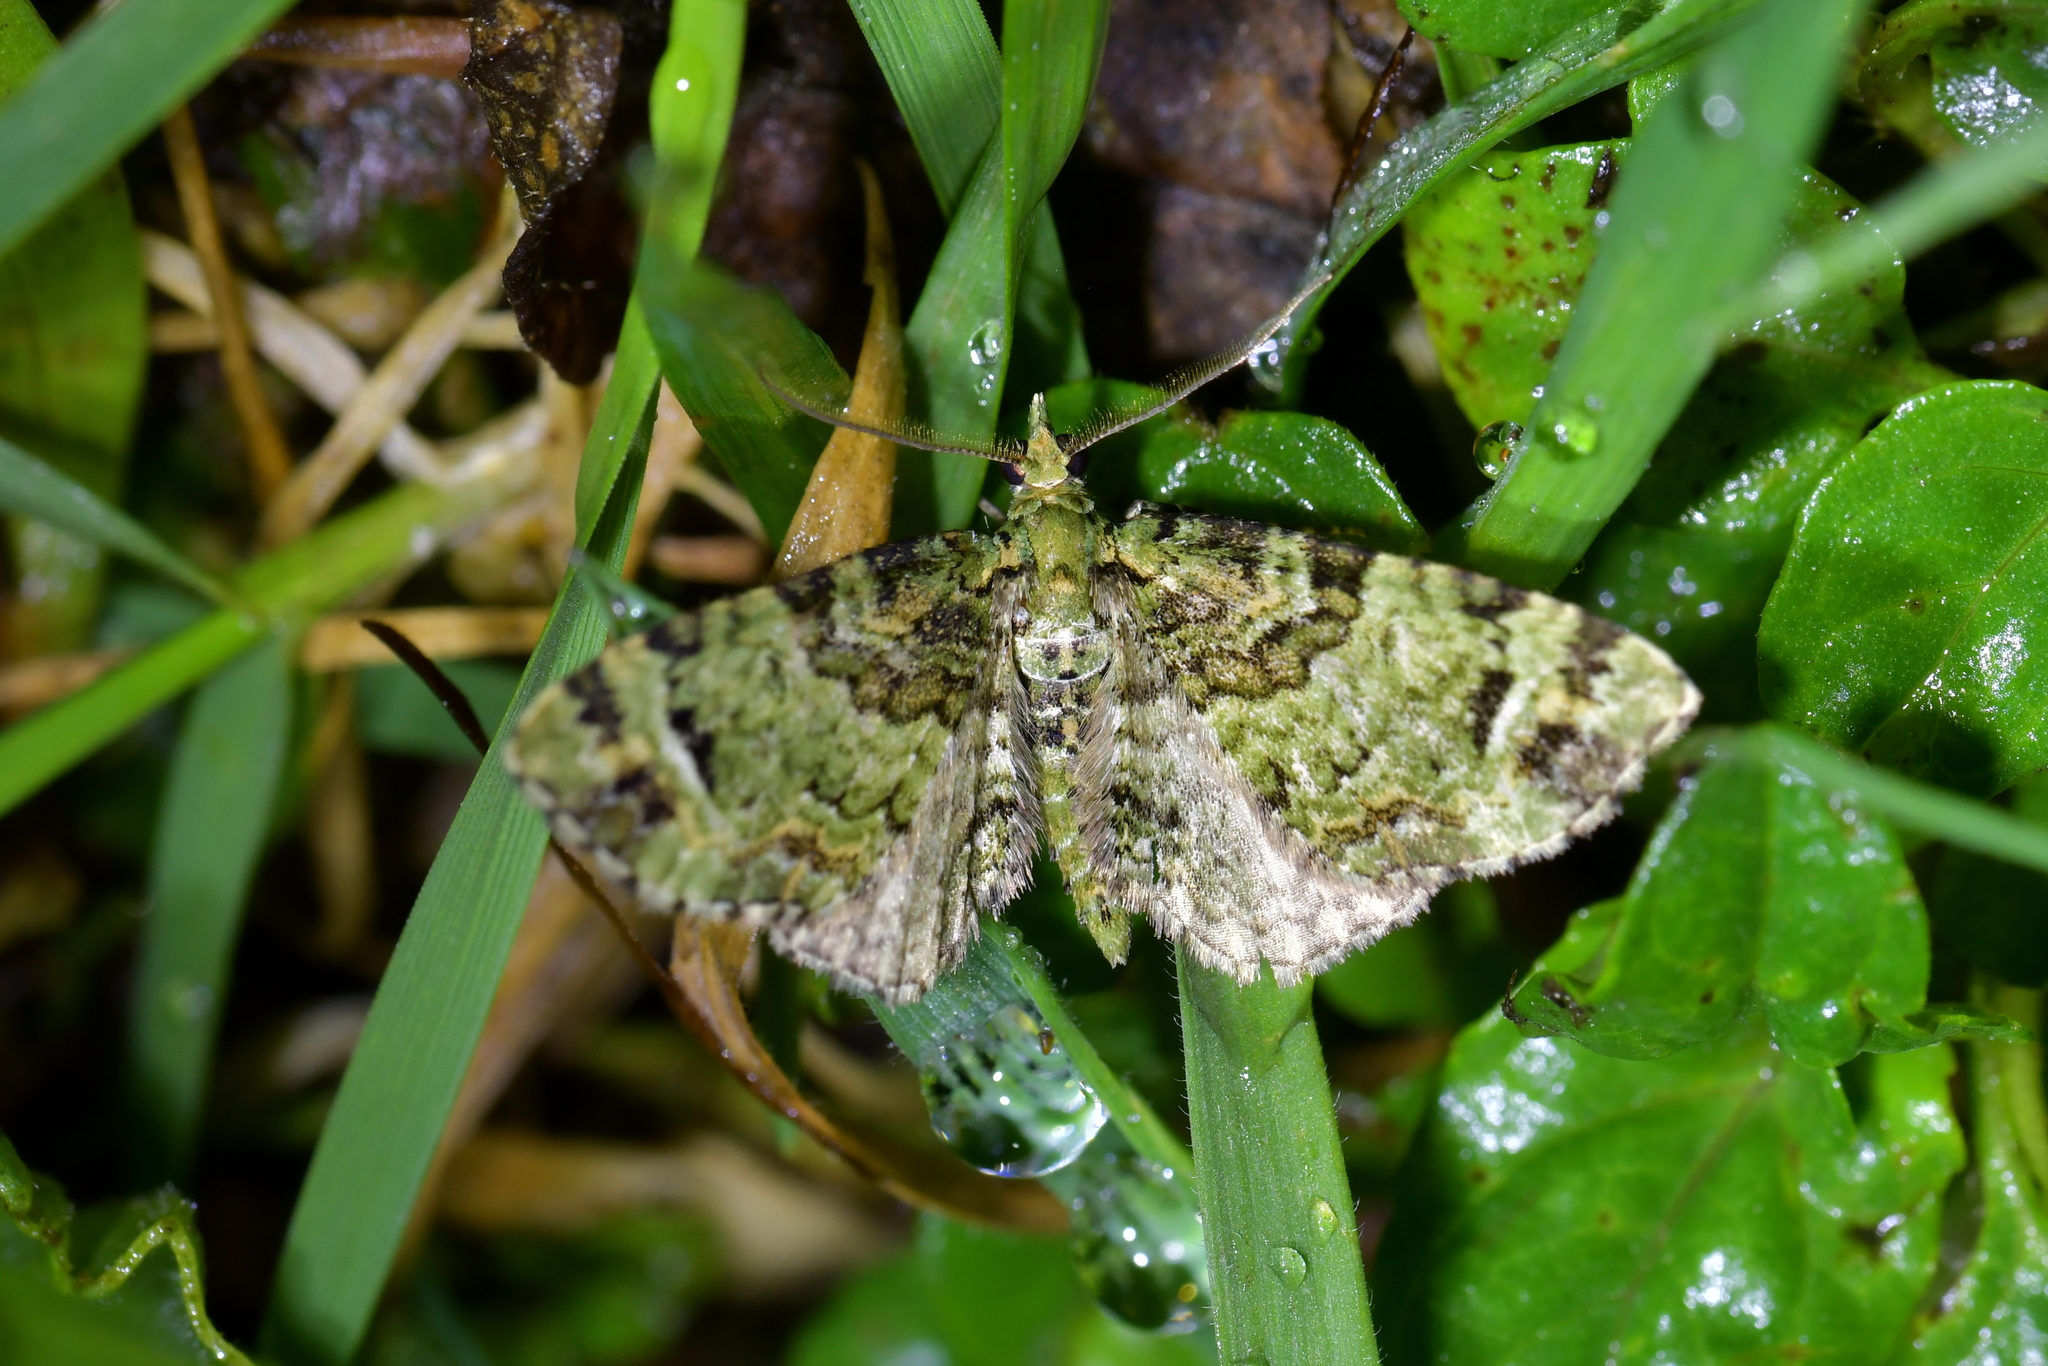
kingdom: Animalia
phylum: Arthropoda
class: Insecta
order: Lepidoptera
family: Geometridae
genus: Pasiphila
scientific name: Pasiphila bilineolata
